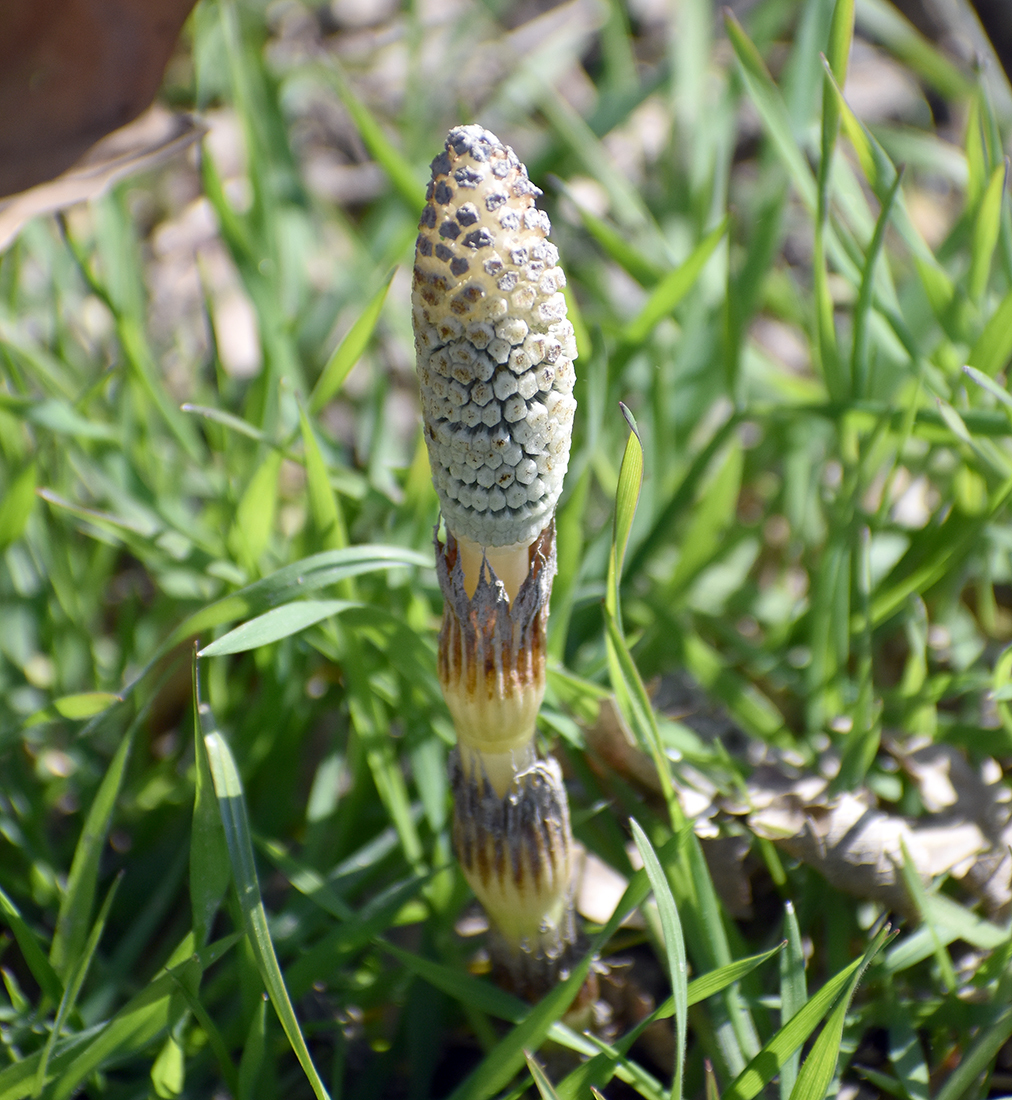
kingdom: Plantae
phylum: Tracheophyta
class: Polypodiopsida
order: Equisetales
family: Equisetaceae
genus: Equisetum
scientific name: Equisetum telmateia
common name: Great horsetail
